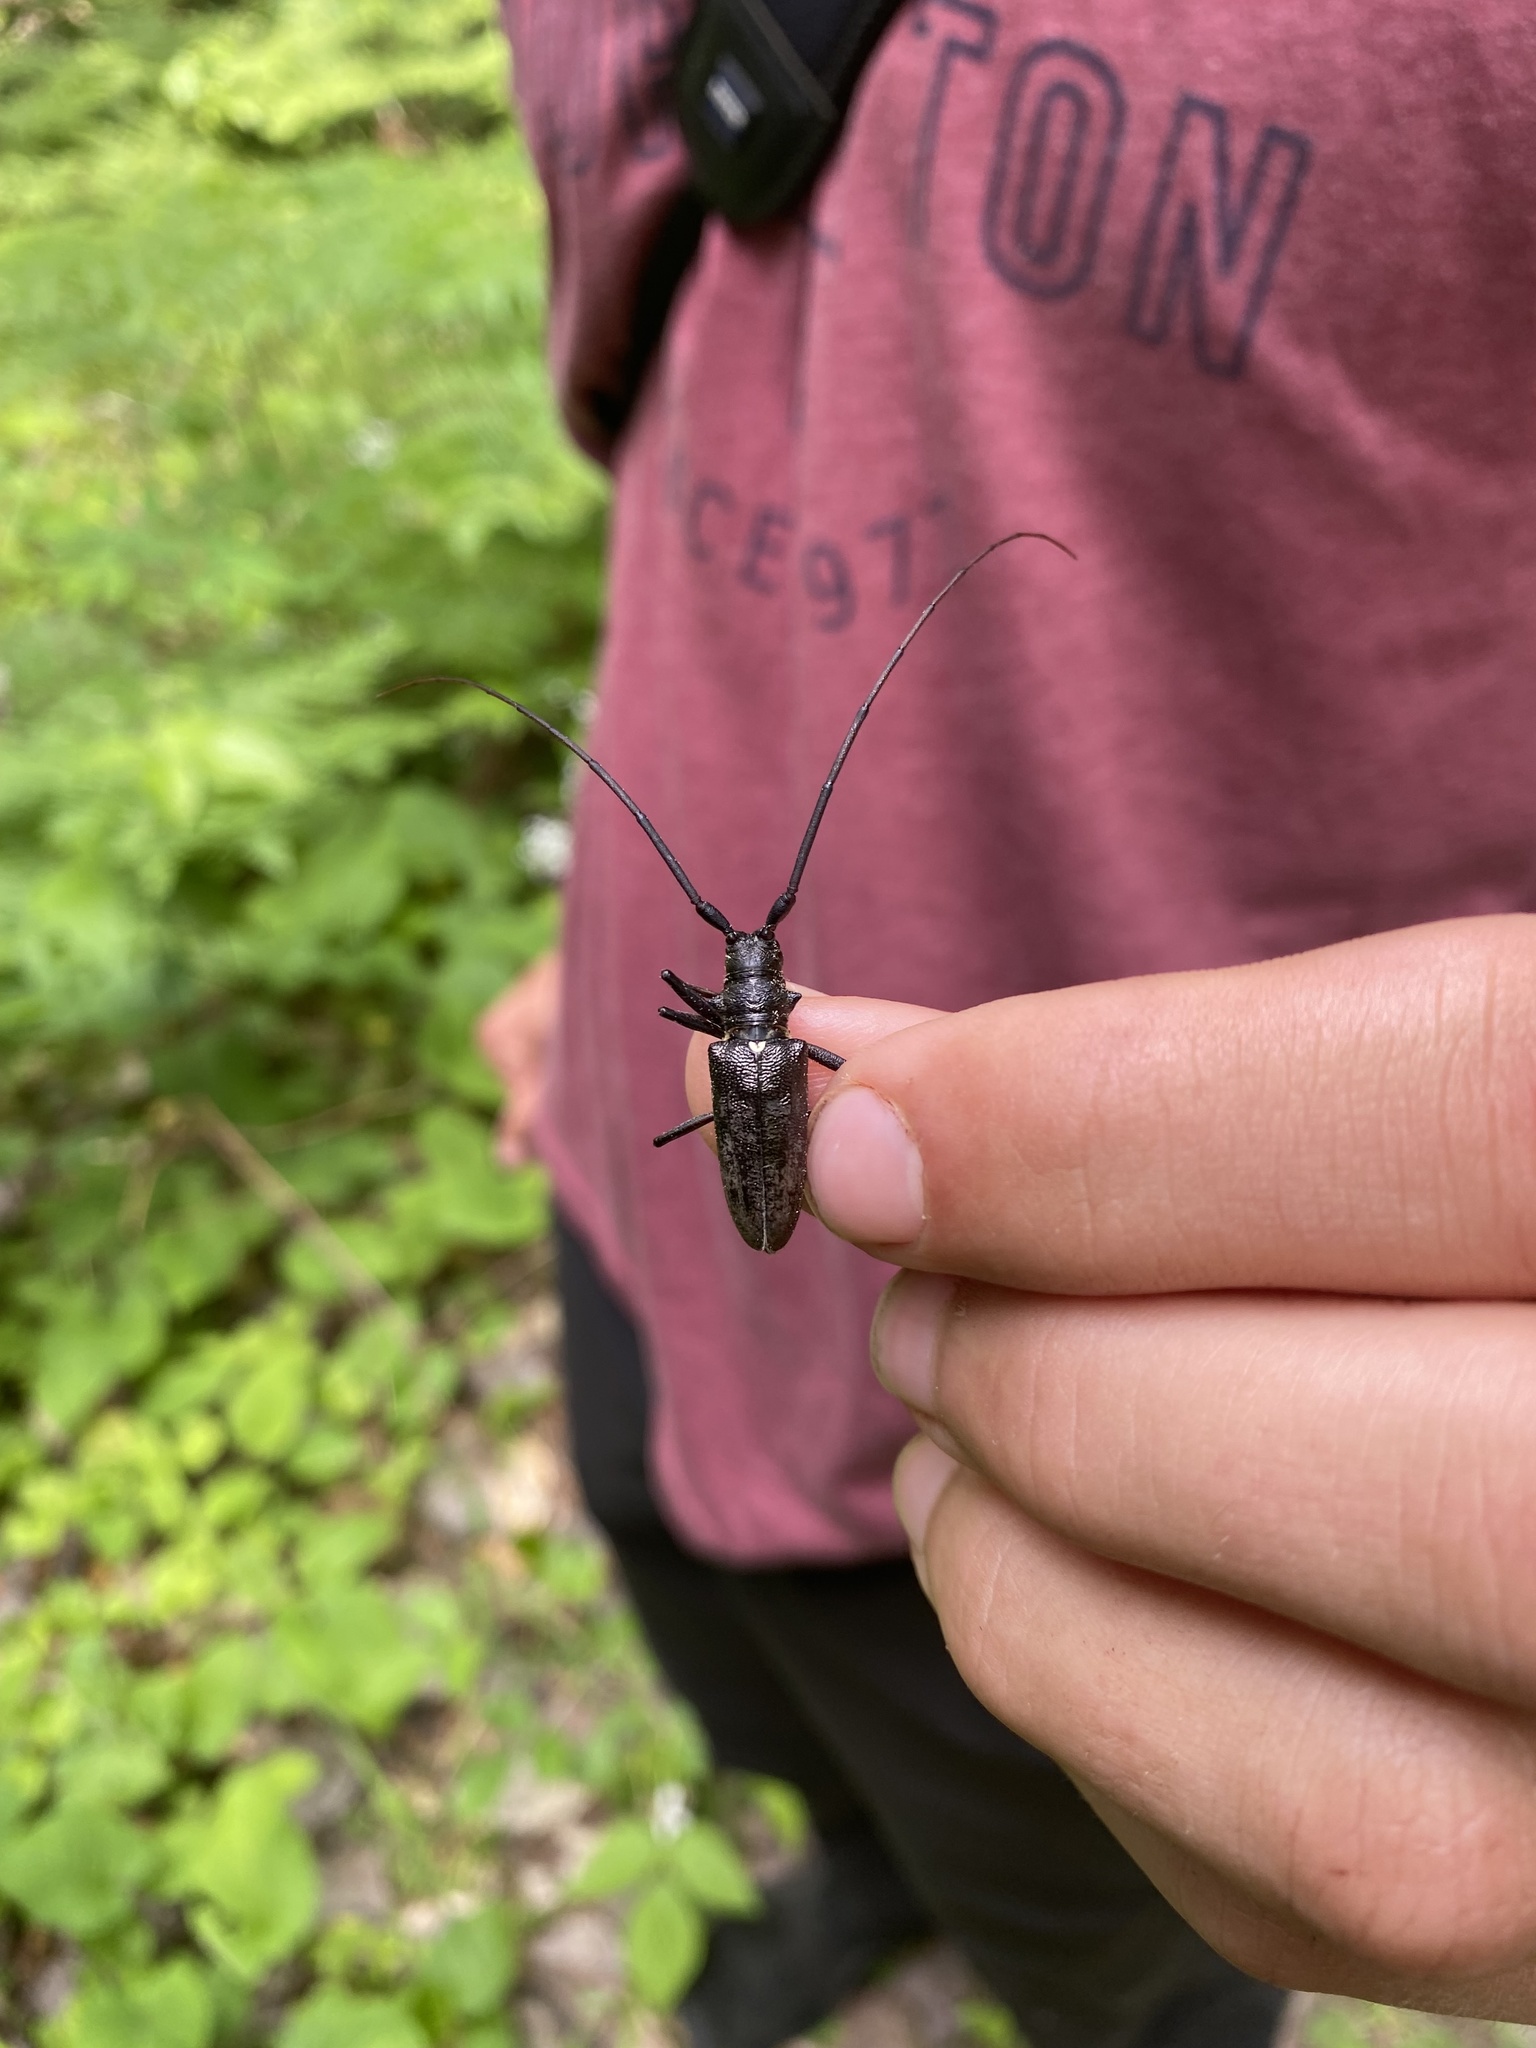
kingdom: Animalia
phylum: Arthropoda
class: Insecta
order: Coleoptera
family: Cerambycidae
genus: Monochamus
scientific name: Monochamus scutellatus
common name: White-spotted sawyer beetle
